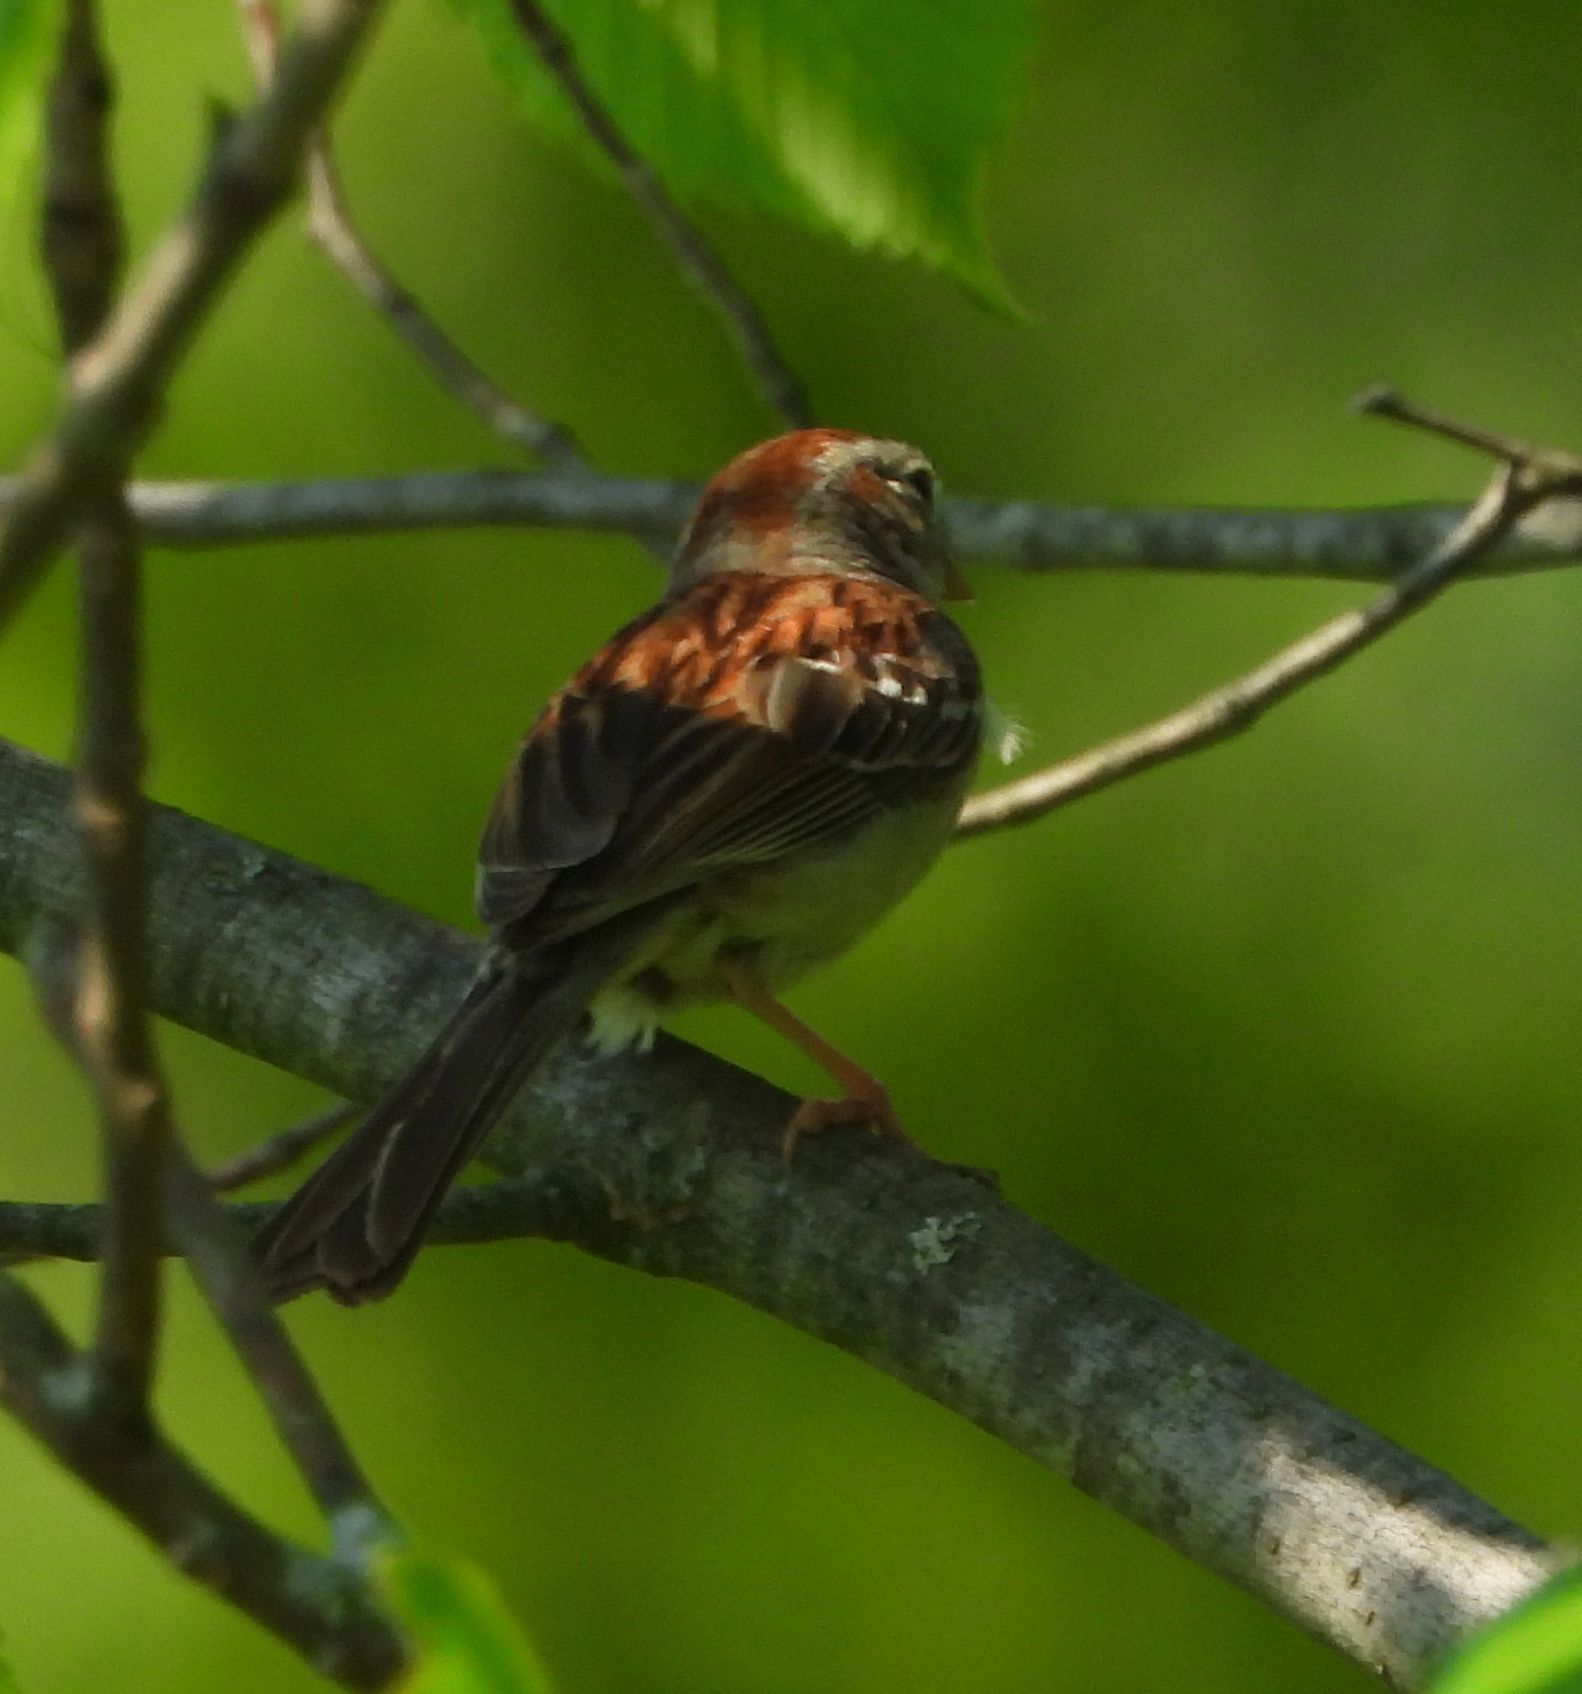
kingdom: Animalia
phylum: Chordata
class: Aves
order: Passeriformes
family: Passerellidae
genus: Spizella
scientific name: Spizella pusilla
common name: Field sparrow
